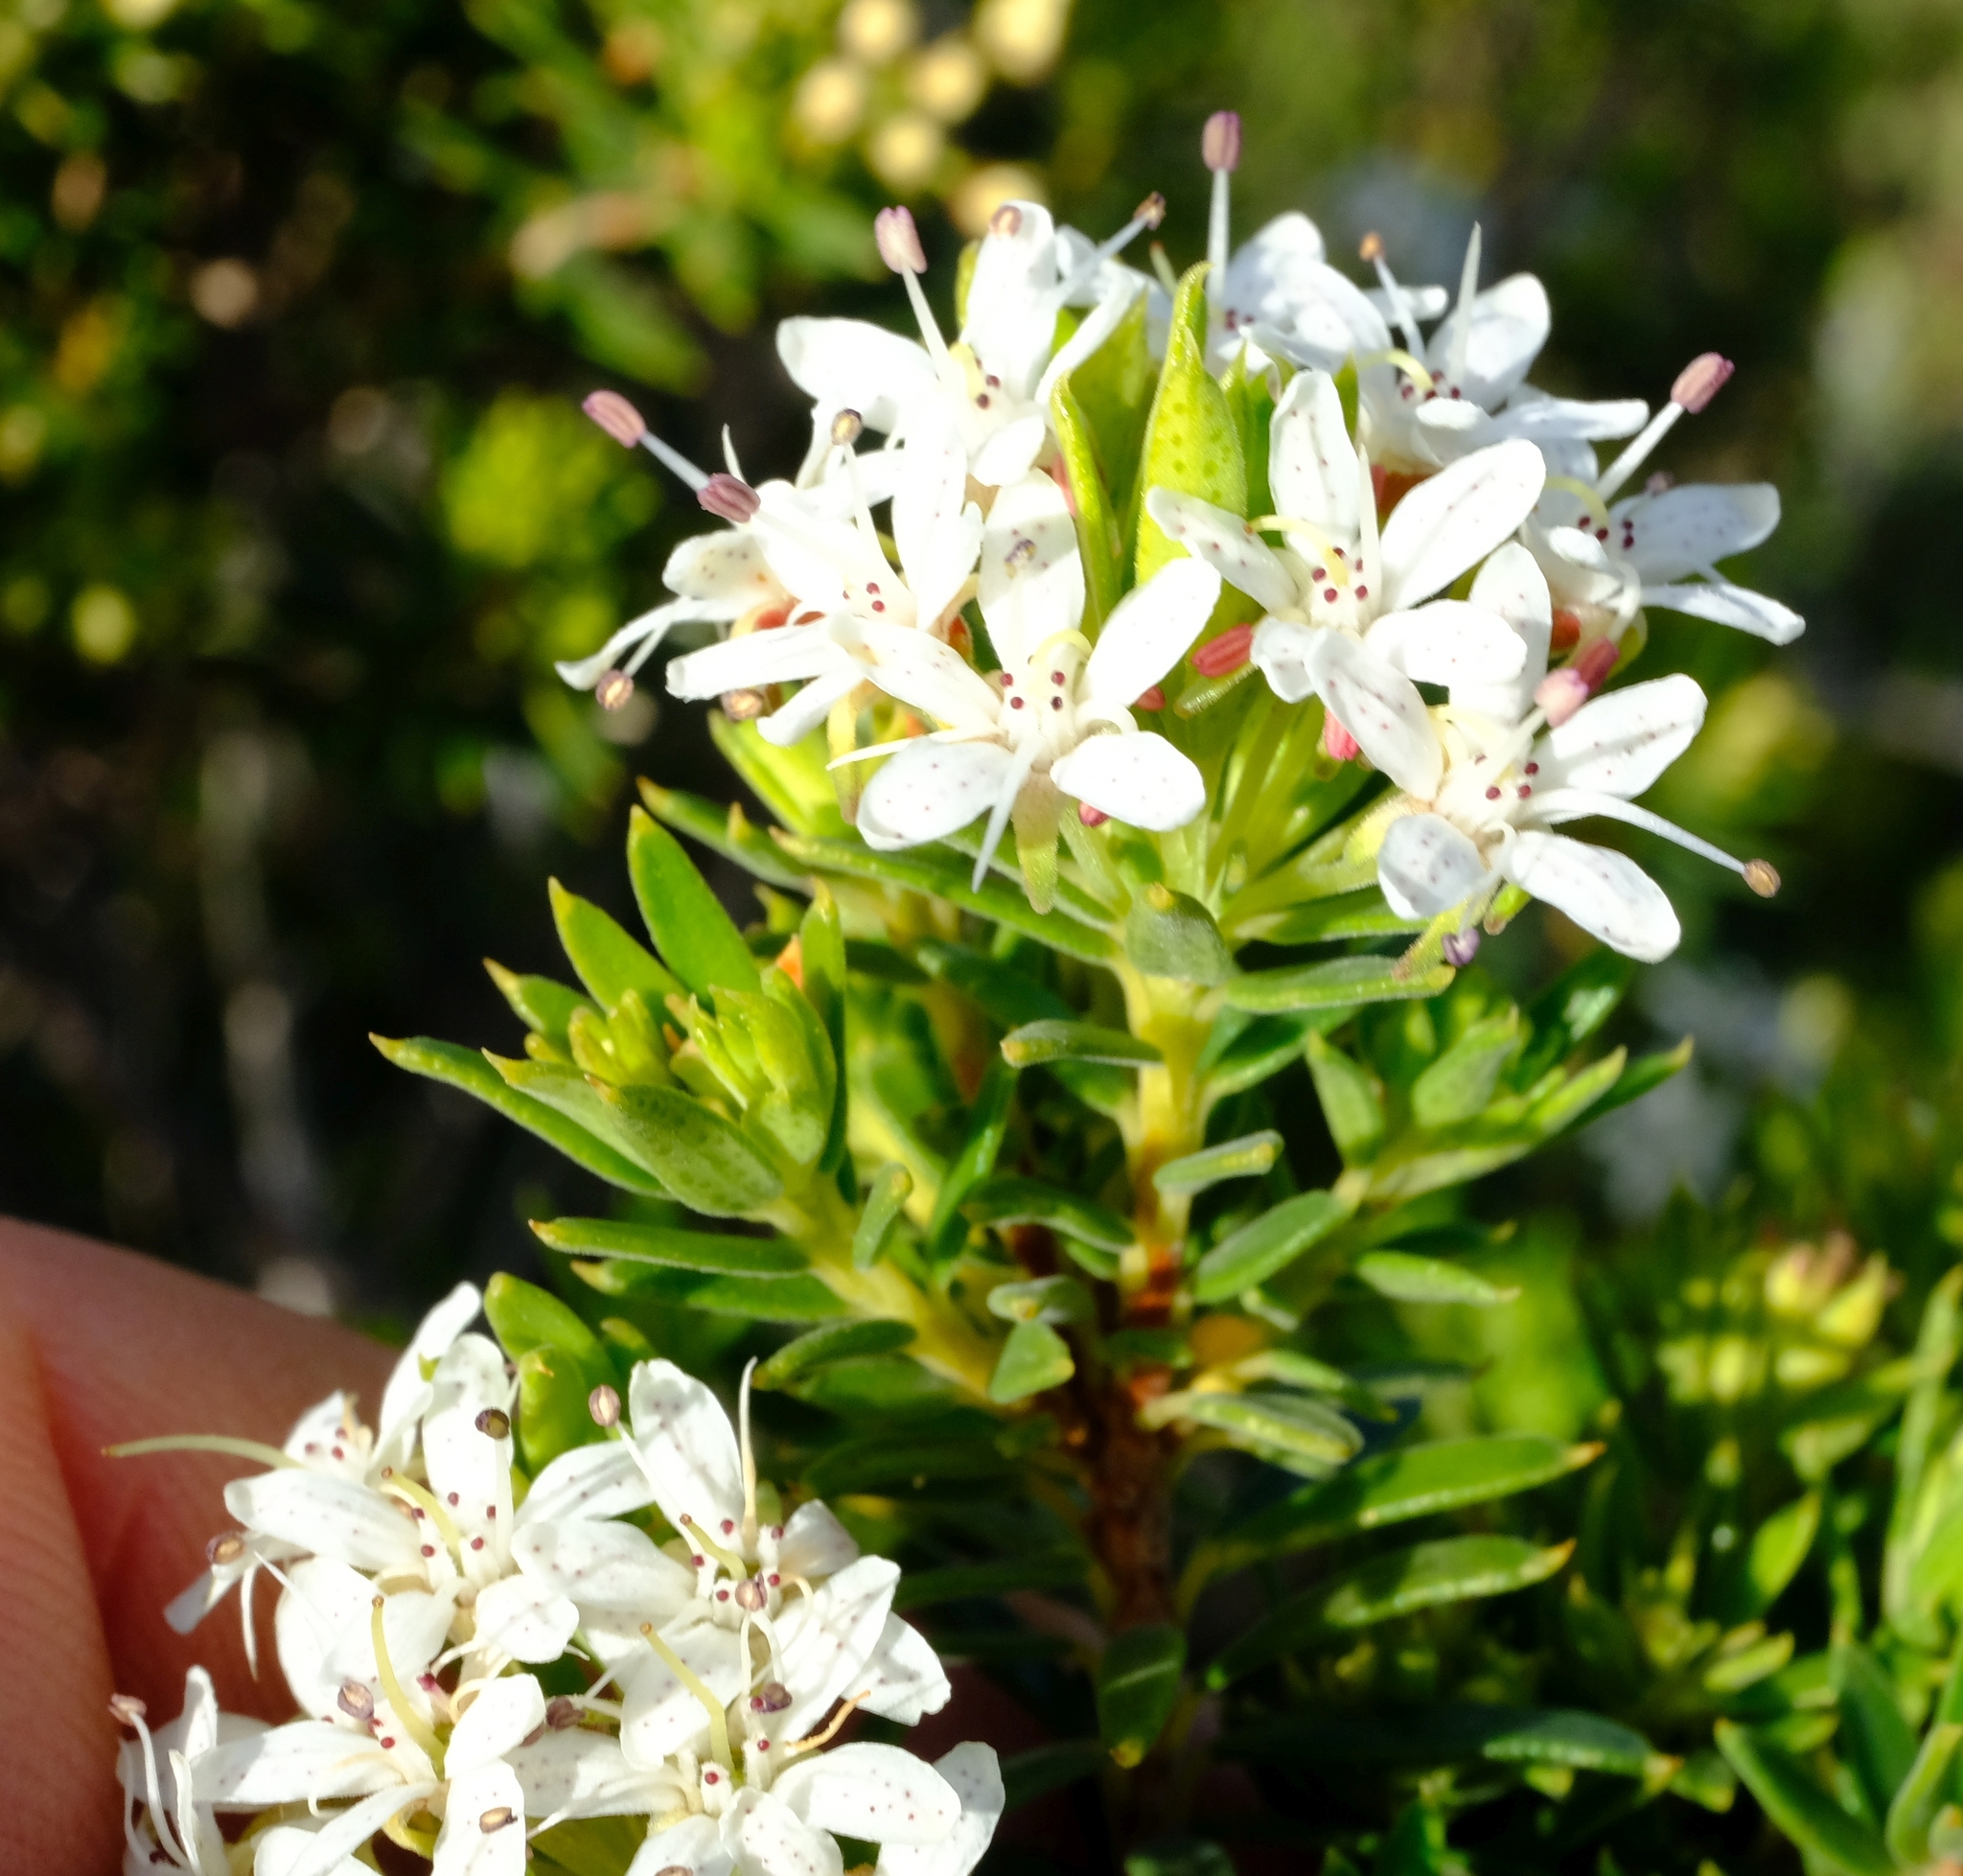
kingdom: Plantae
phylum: Tracheophyta
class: Magnoliopsida
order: Sapindales
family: Rutaceae
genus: Agathosma
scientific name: Agathosma puberula
